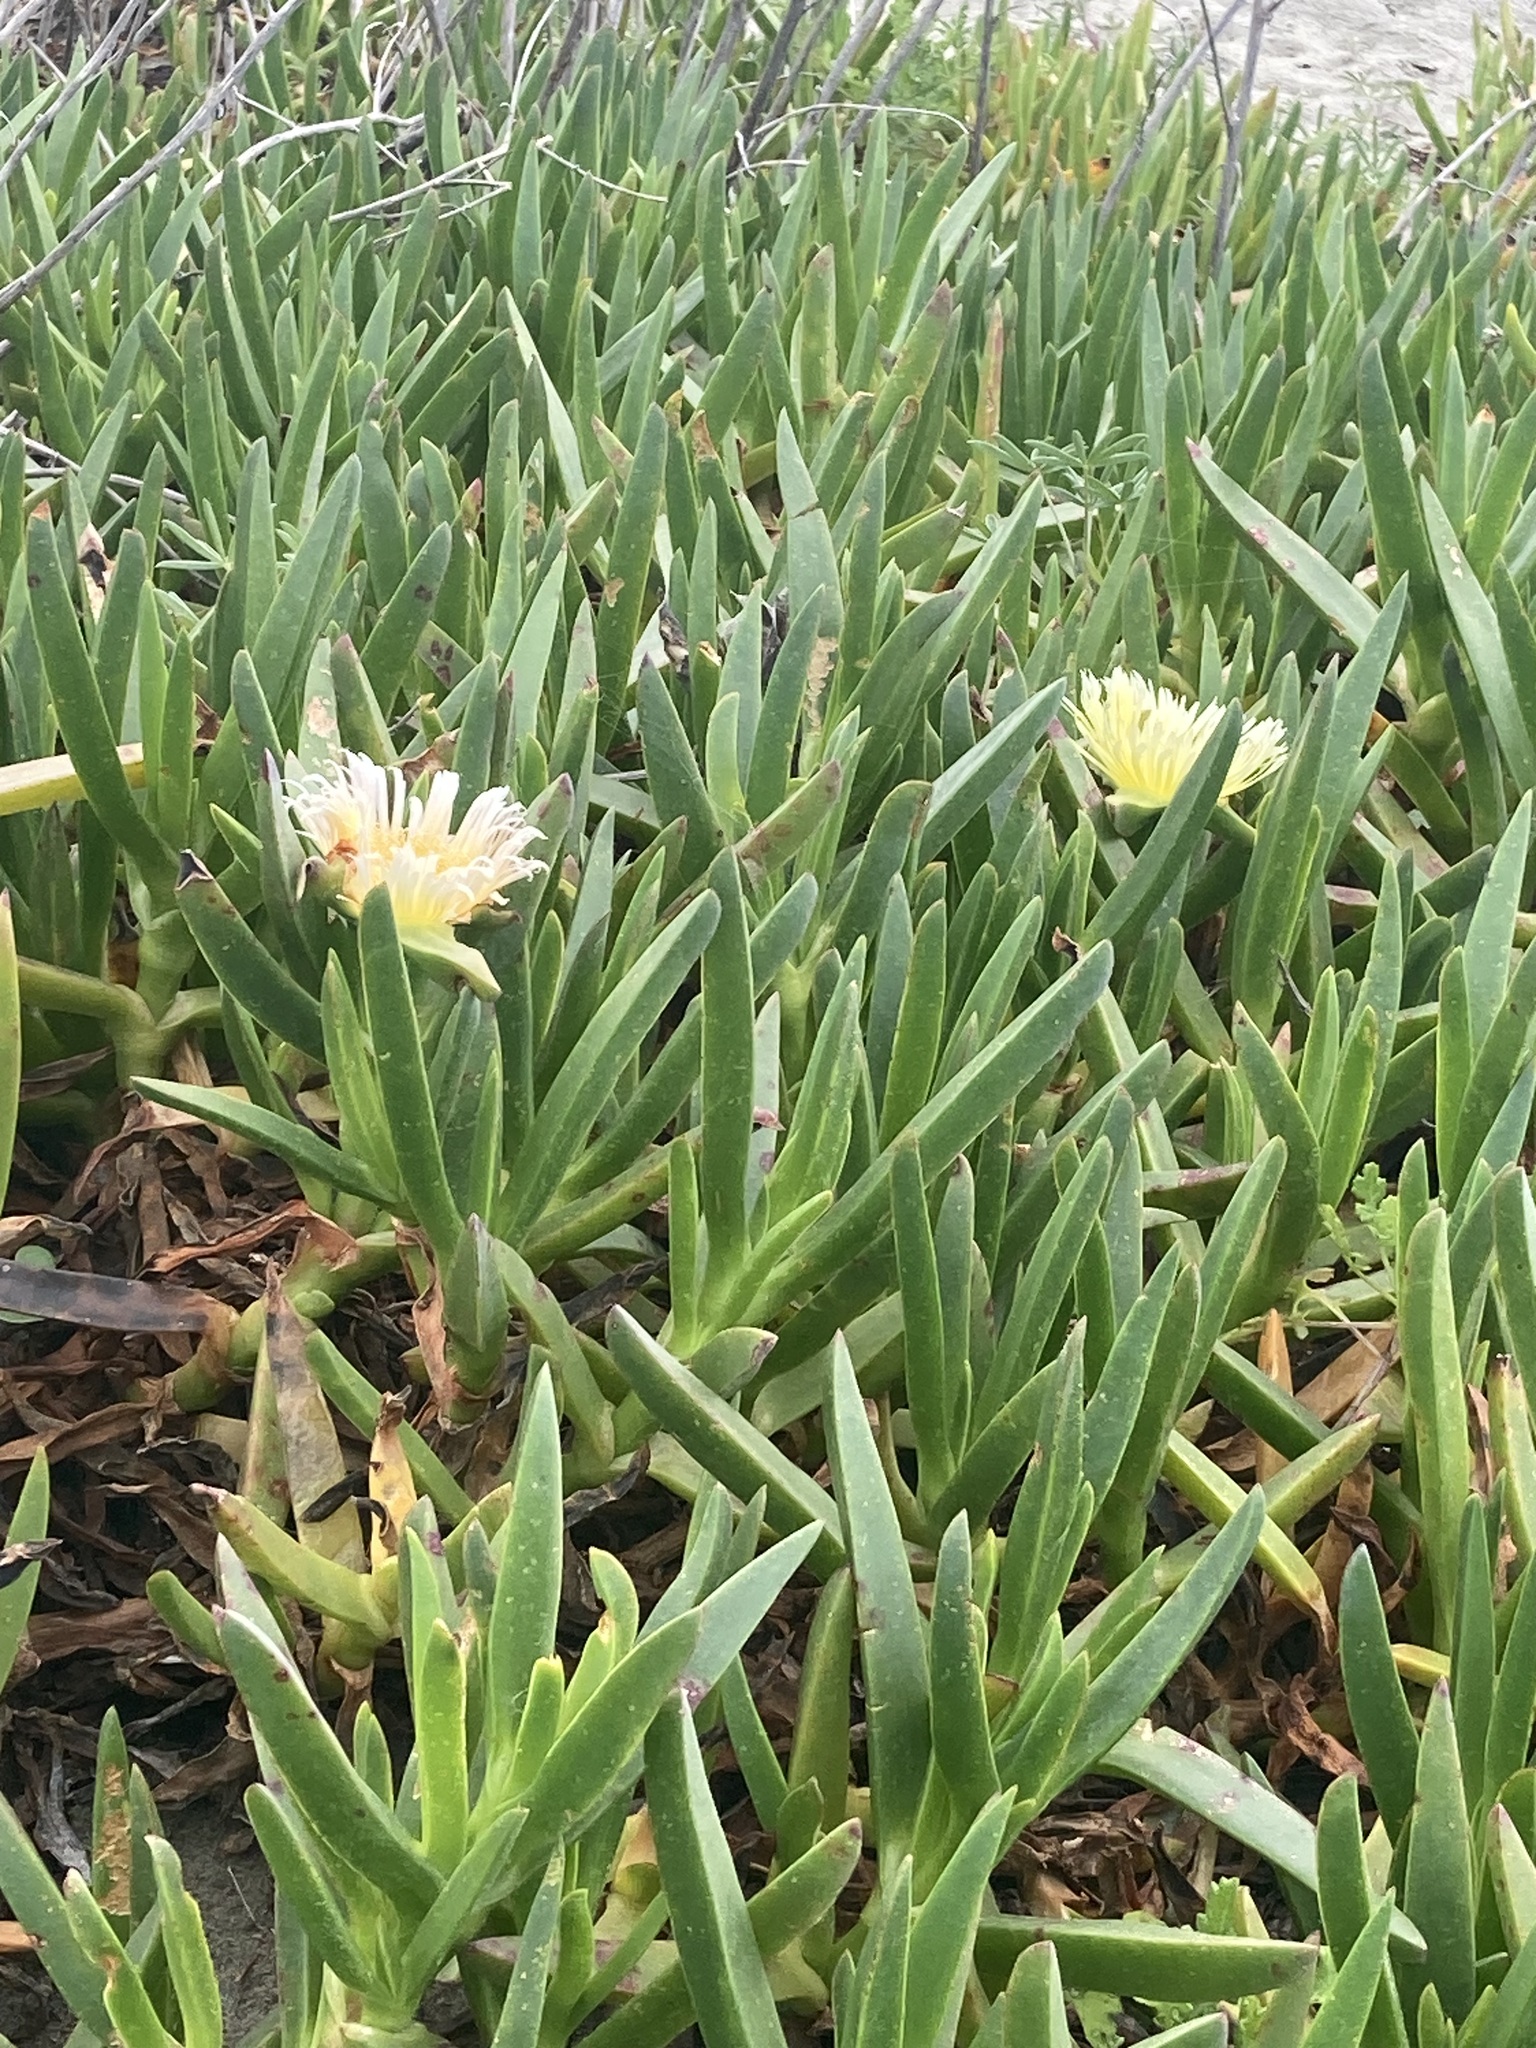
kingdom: Plantae
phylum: Tracheophyta
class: Magnoliopsida
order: Caryophyllales
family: Aizoaceae
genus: Carpobrotus
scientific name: Carpobrotus edulis
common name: Hottentot-fig
